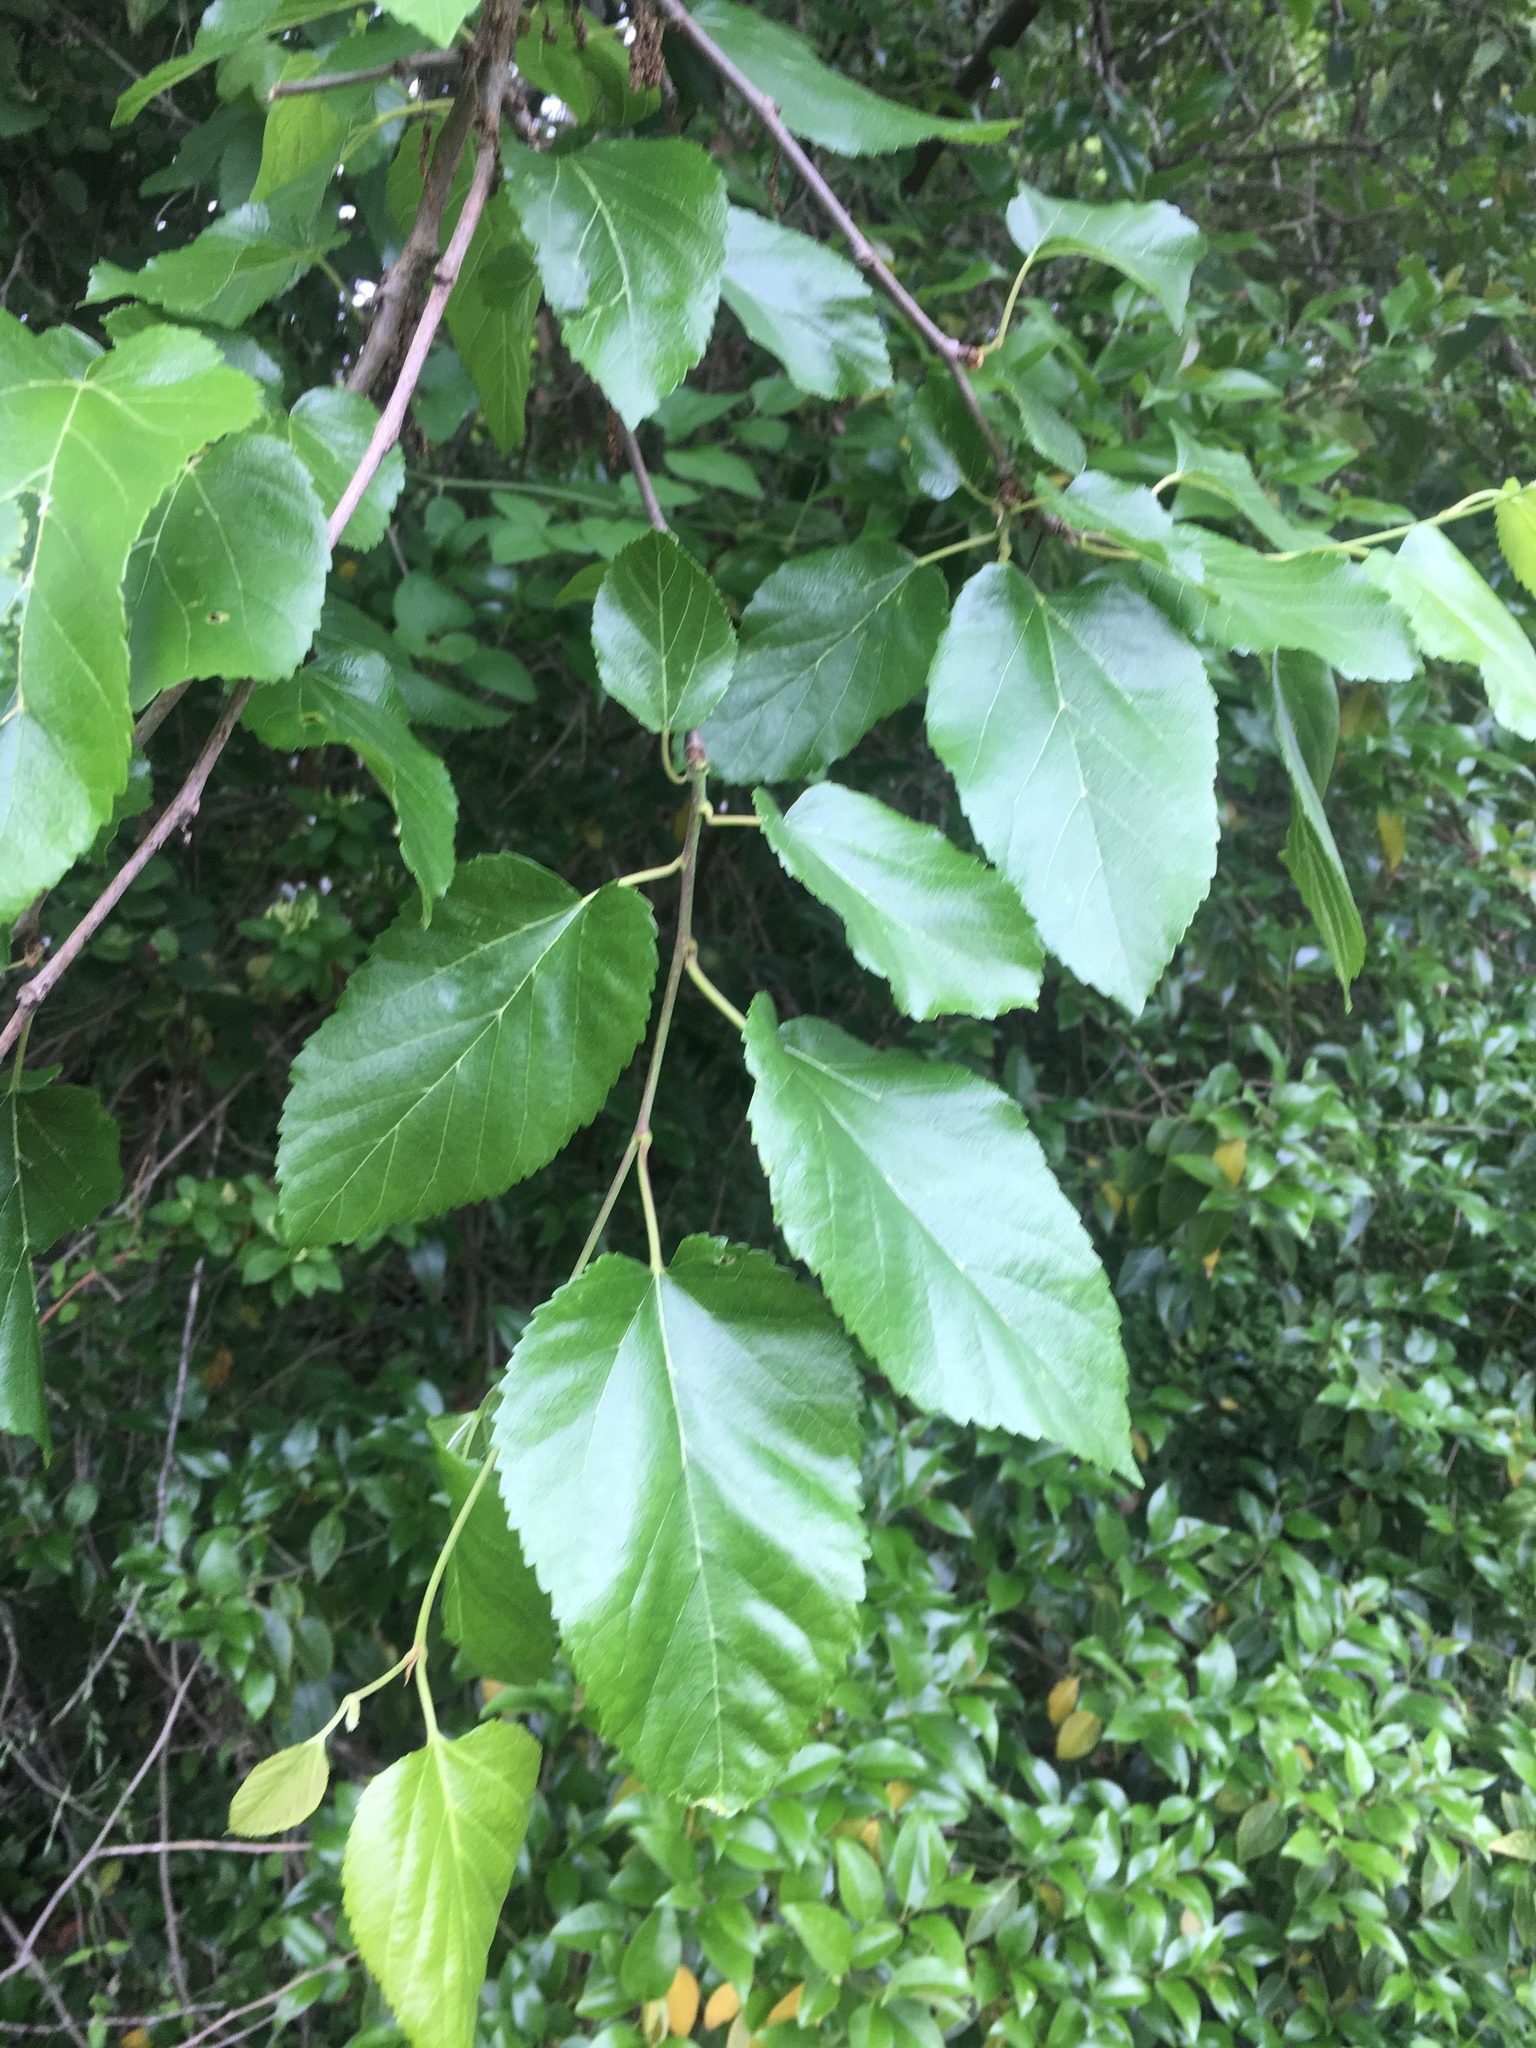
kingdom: Plantae
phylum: Tracheophyta
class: Magnoliopsida
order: Rosales
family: Moraceae
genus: Morus
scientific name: Morus alba
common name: White mulberry
